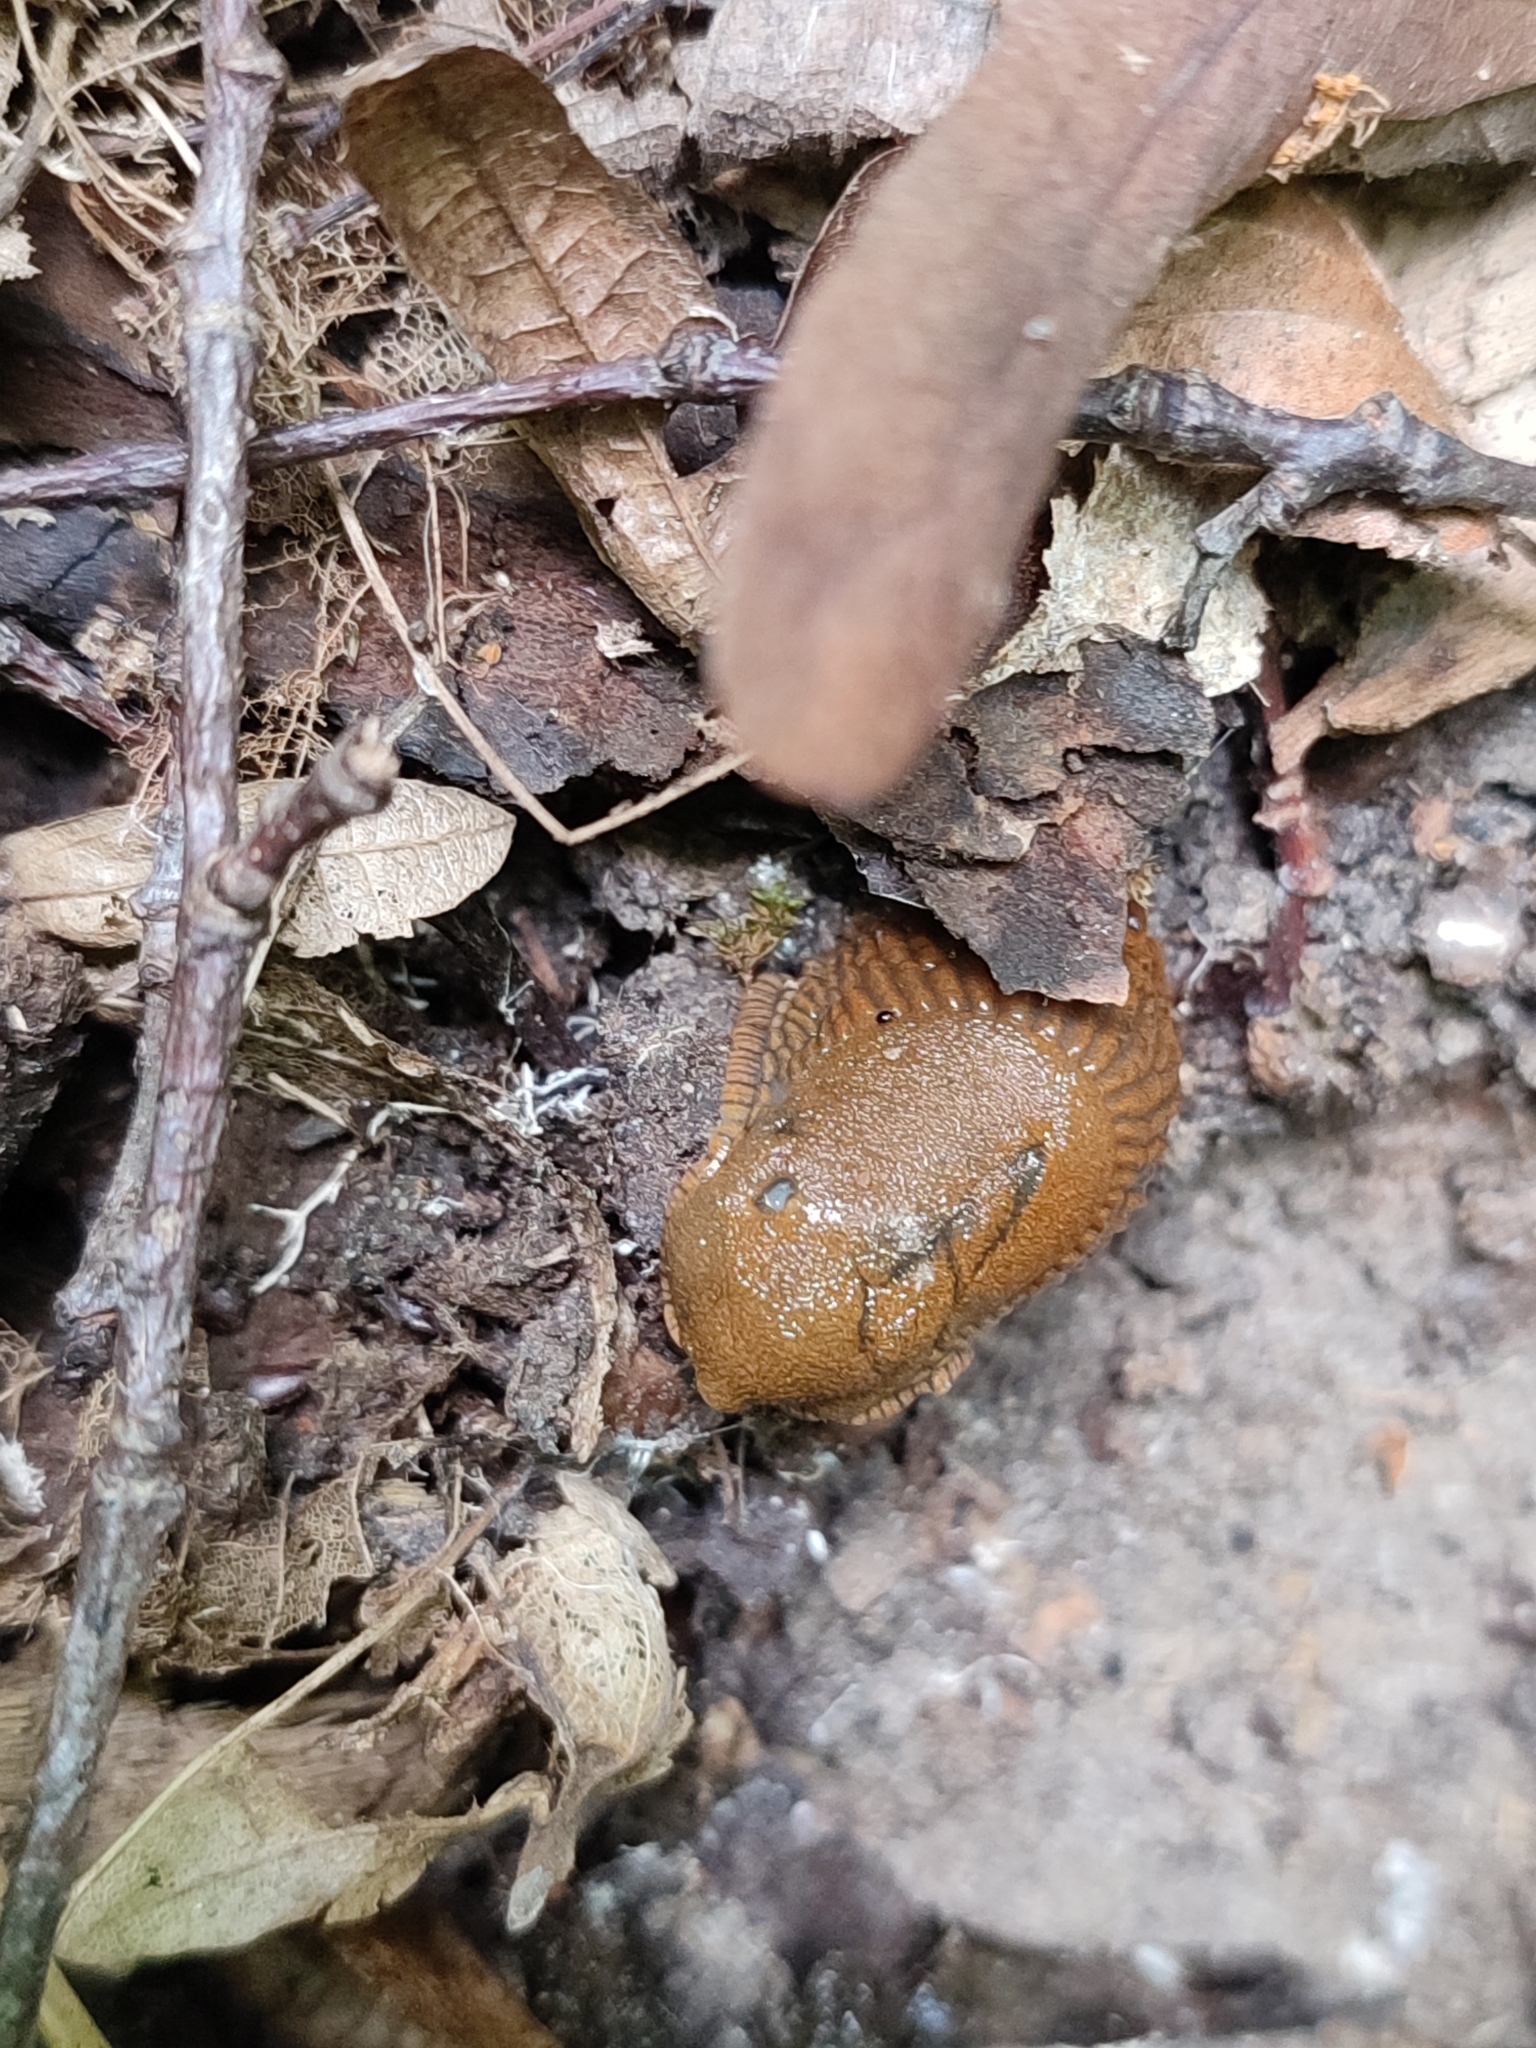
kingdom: Animalia
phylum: Mollusca
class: Gastropoda
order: Stylommatophora
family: Arionidae
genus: Arion
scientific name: Arion vulgaris
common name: Lusitanian slug
